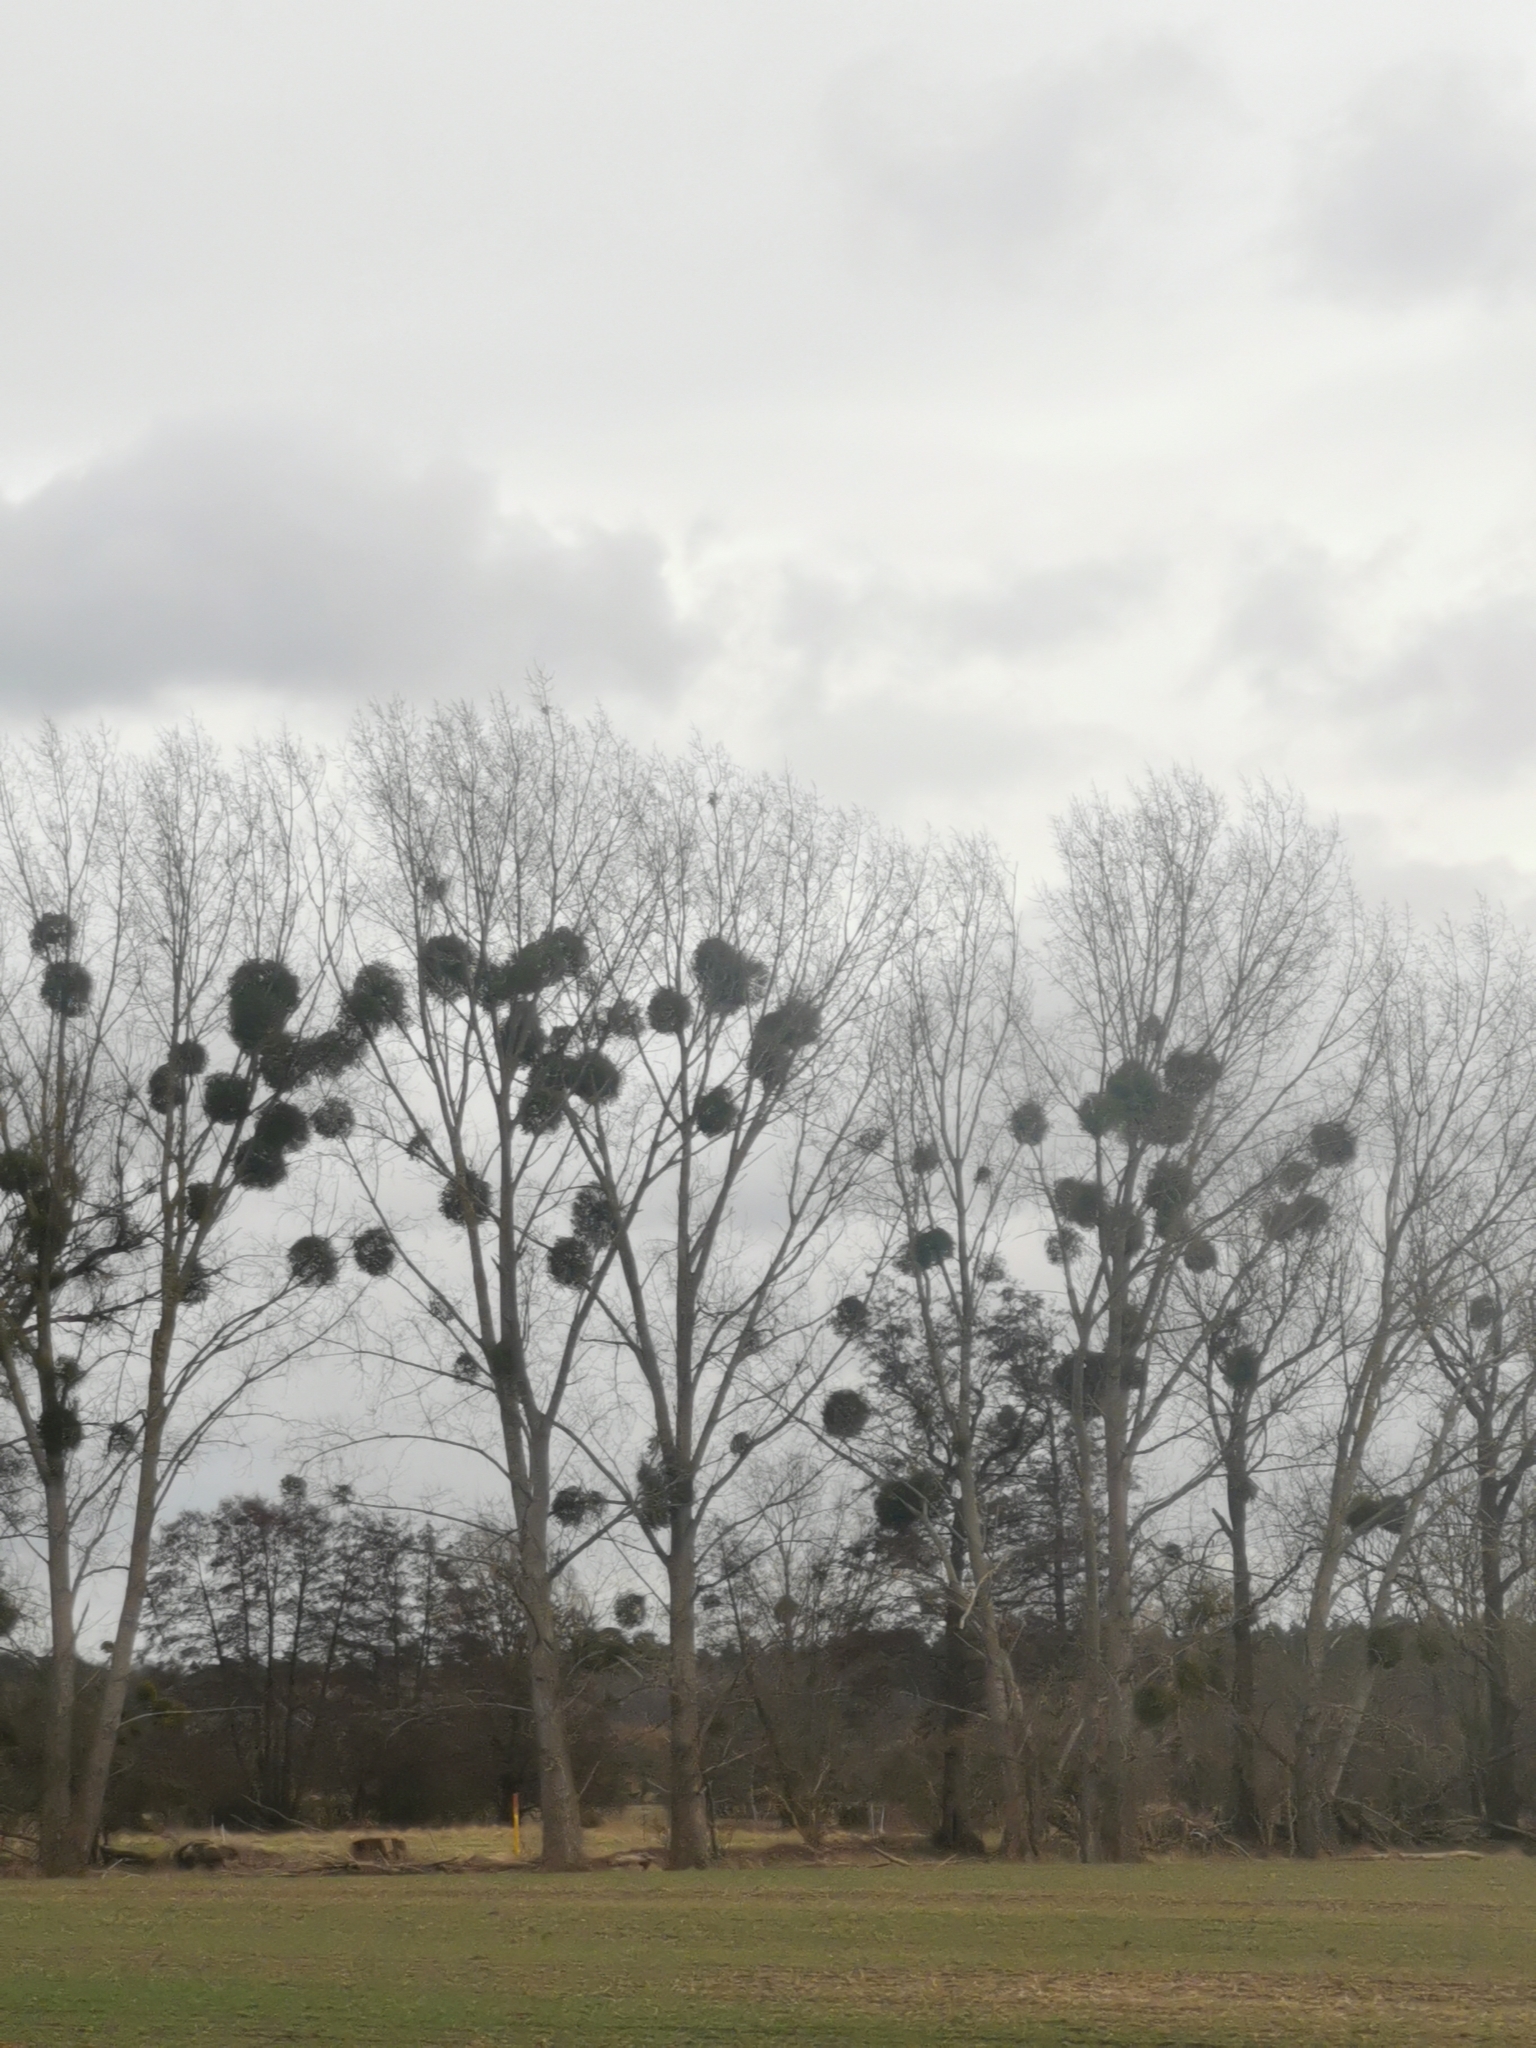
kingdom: Plantae
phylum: Tracheophyta
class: Magnoliopsida
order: Santalales
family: Viscaceae
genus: Viscum
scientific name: Viscum album
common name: Mistletoe
